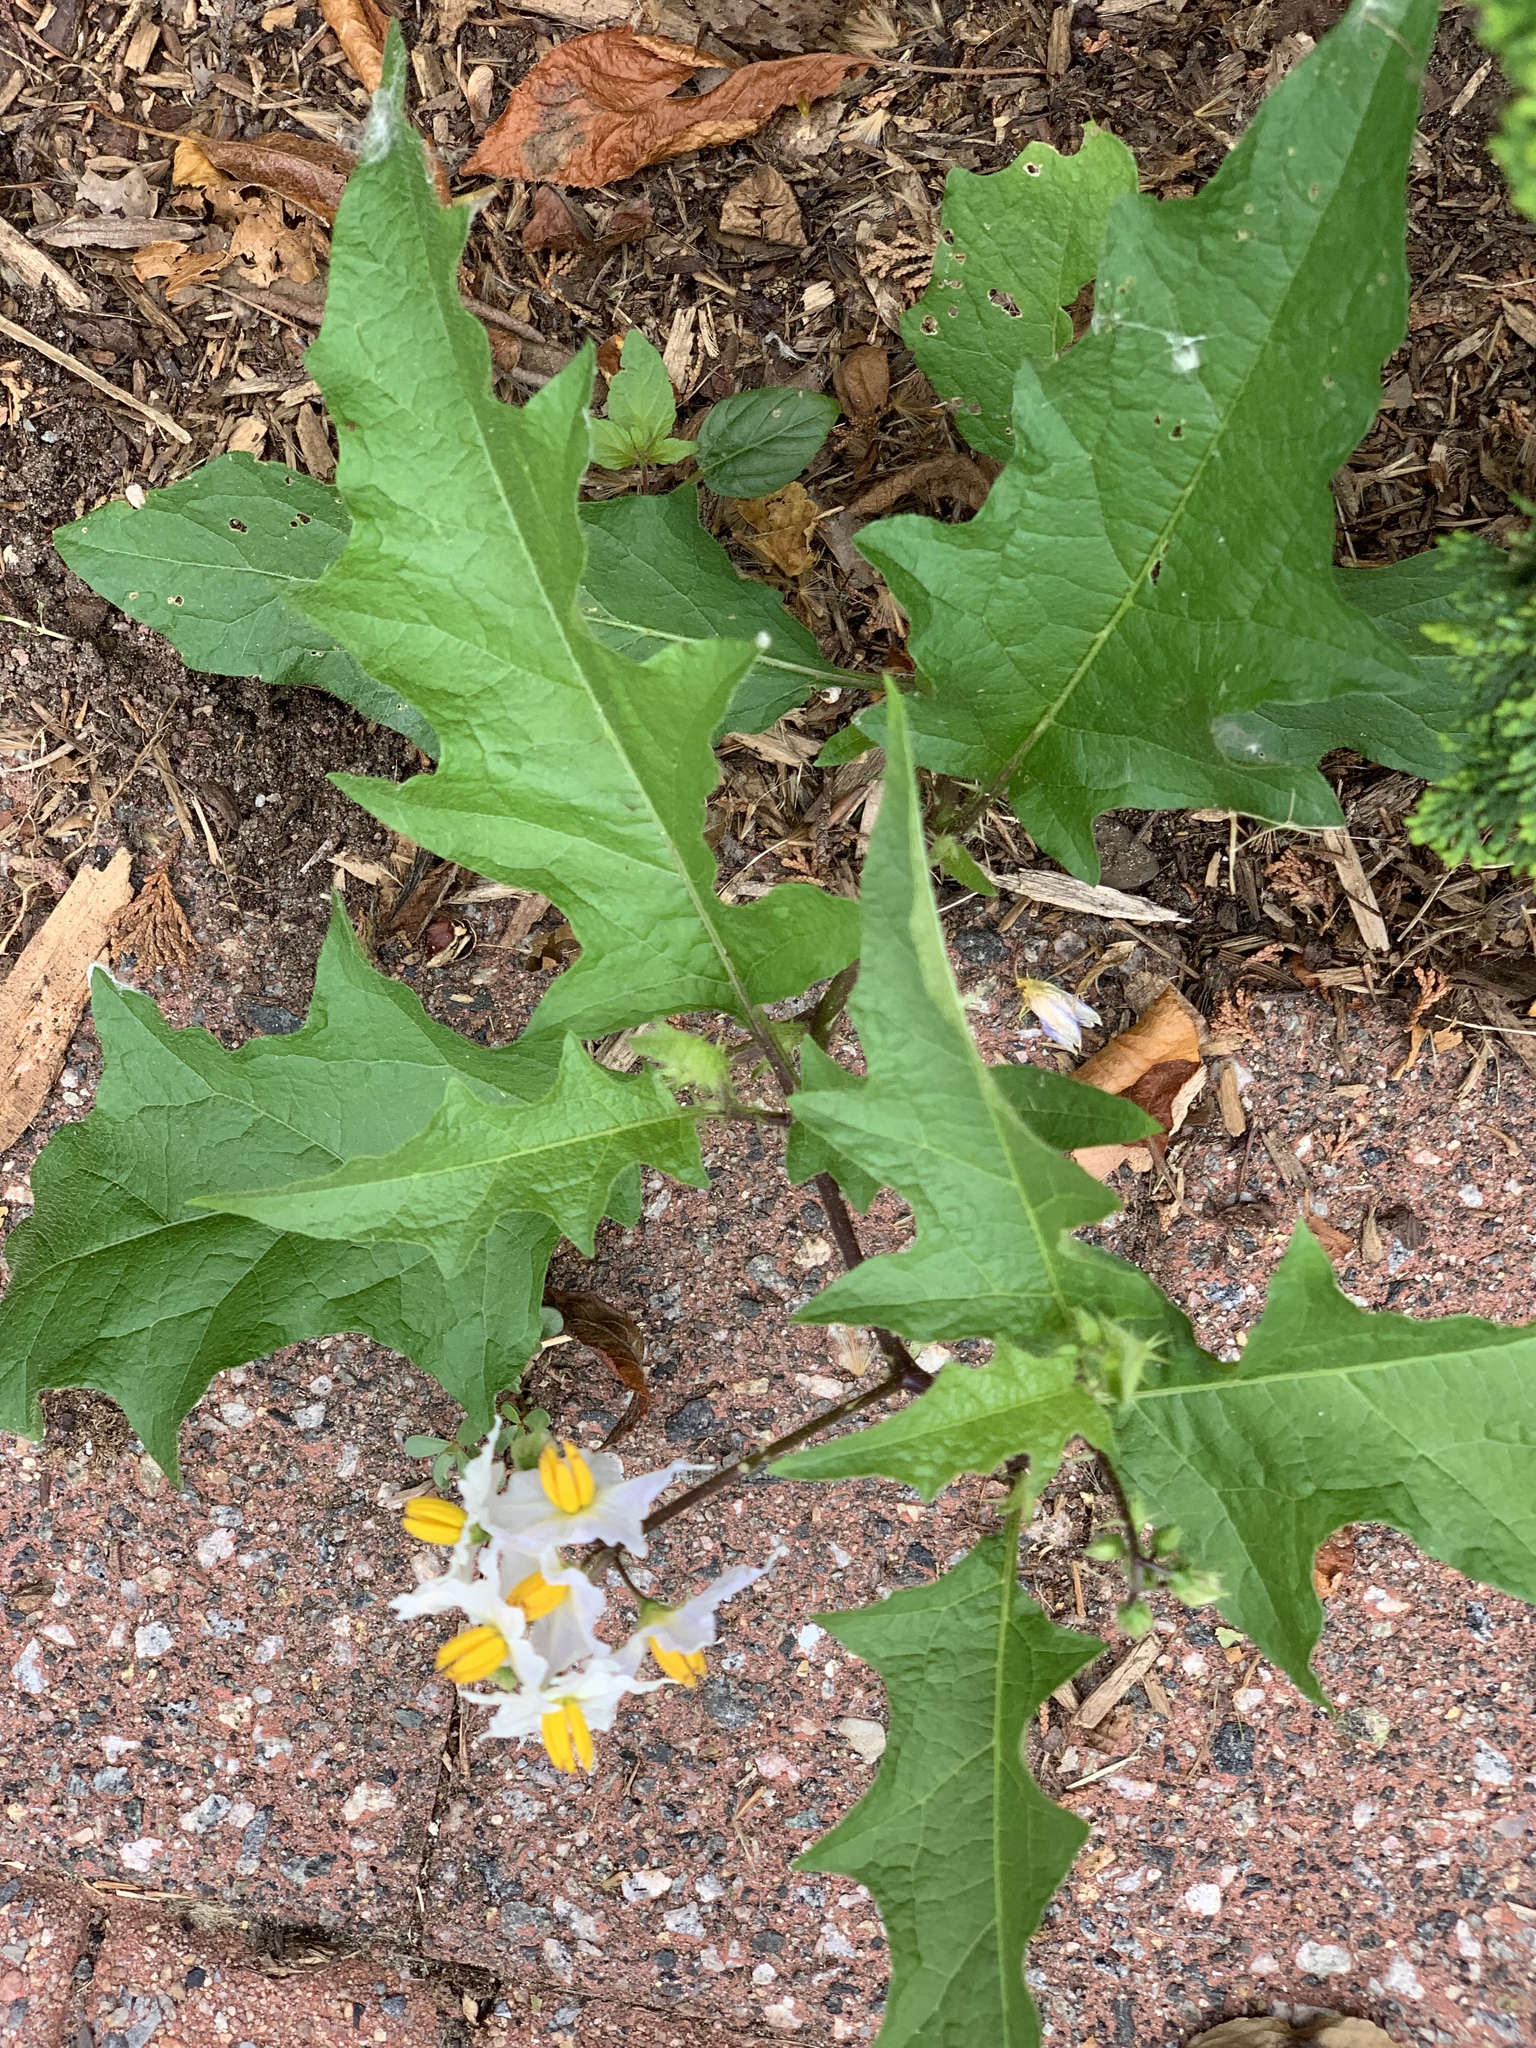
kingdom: Plantae
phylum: Tracheophyta
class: Magnoliopsida
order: Solanales
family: Solanaceae
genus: Solanum
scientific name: Solanum carolinense
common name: Horse-nettle
